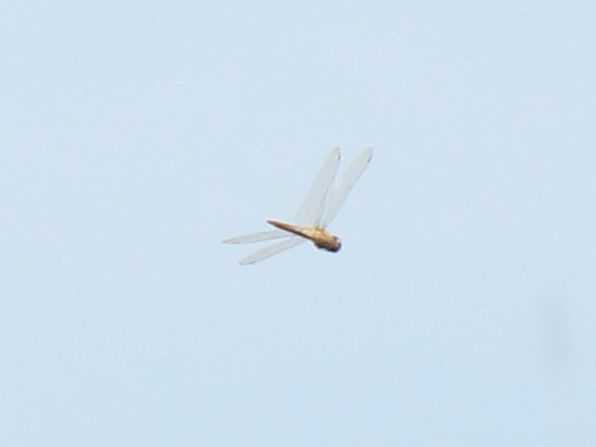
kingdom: Animalia
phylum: Arthropoda
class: Insecta
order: Odonata
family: Libellulidae
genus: Pantala
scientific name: Pantala flavescens
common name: Wandering glider
